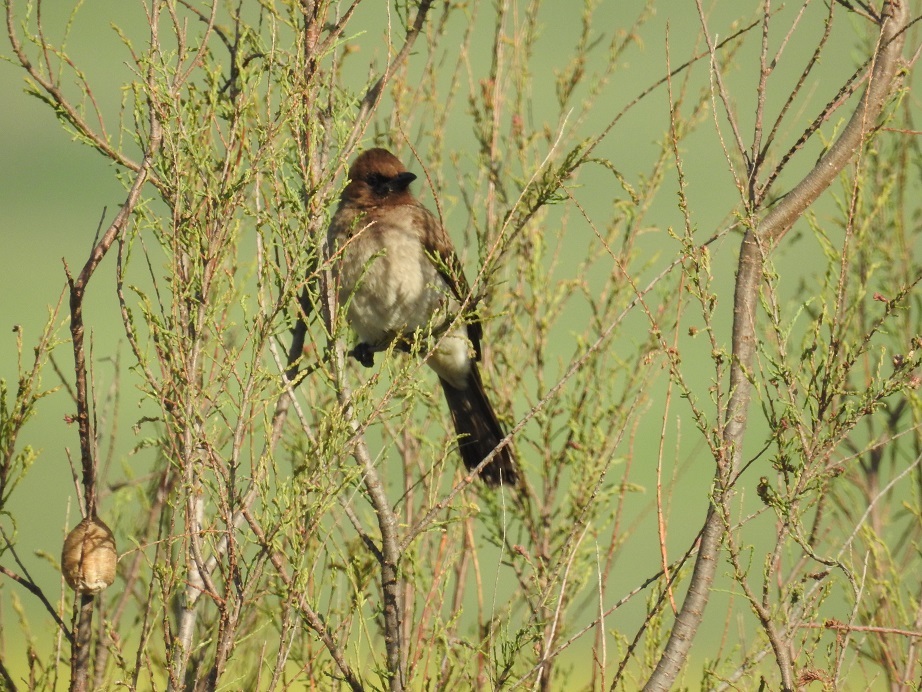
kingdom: Animalia
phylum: Chordata
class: Aves
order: Passeriformes
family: Pycnonotidae
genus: Pycnonotus
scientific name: Pycnonotus barbatus
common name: Common bulbul
